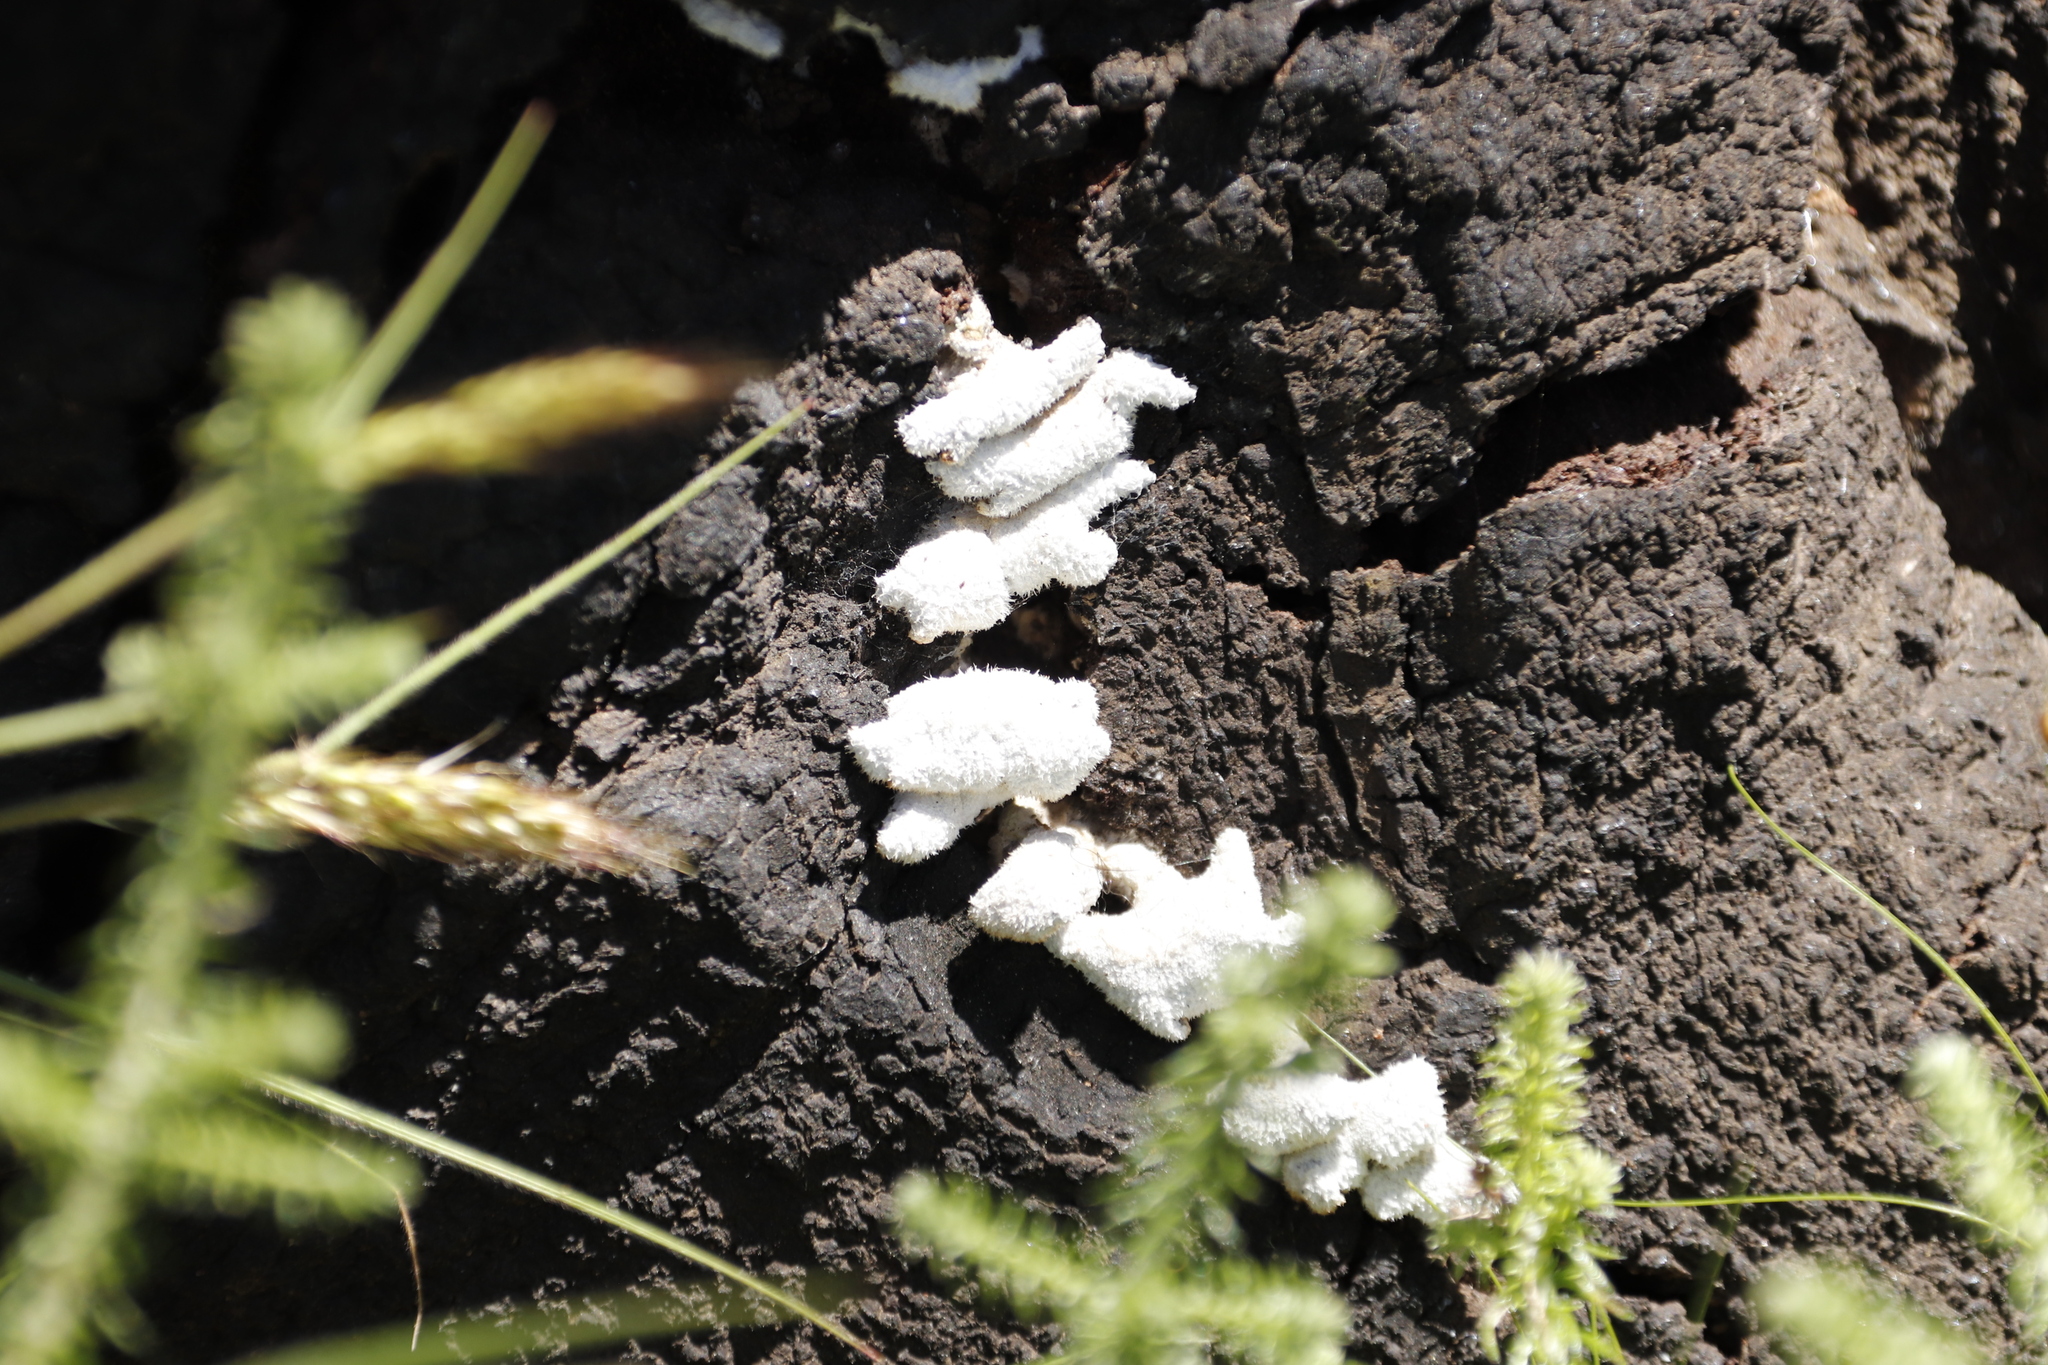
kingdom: Fungi
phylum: Basidiomycota
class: Agaricomycetes
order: Agaricales
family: Schizophyllaceae
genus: Schizophyllum
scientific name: Schizophyllum commune
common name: Common porecrust
